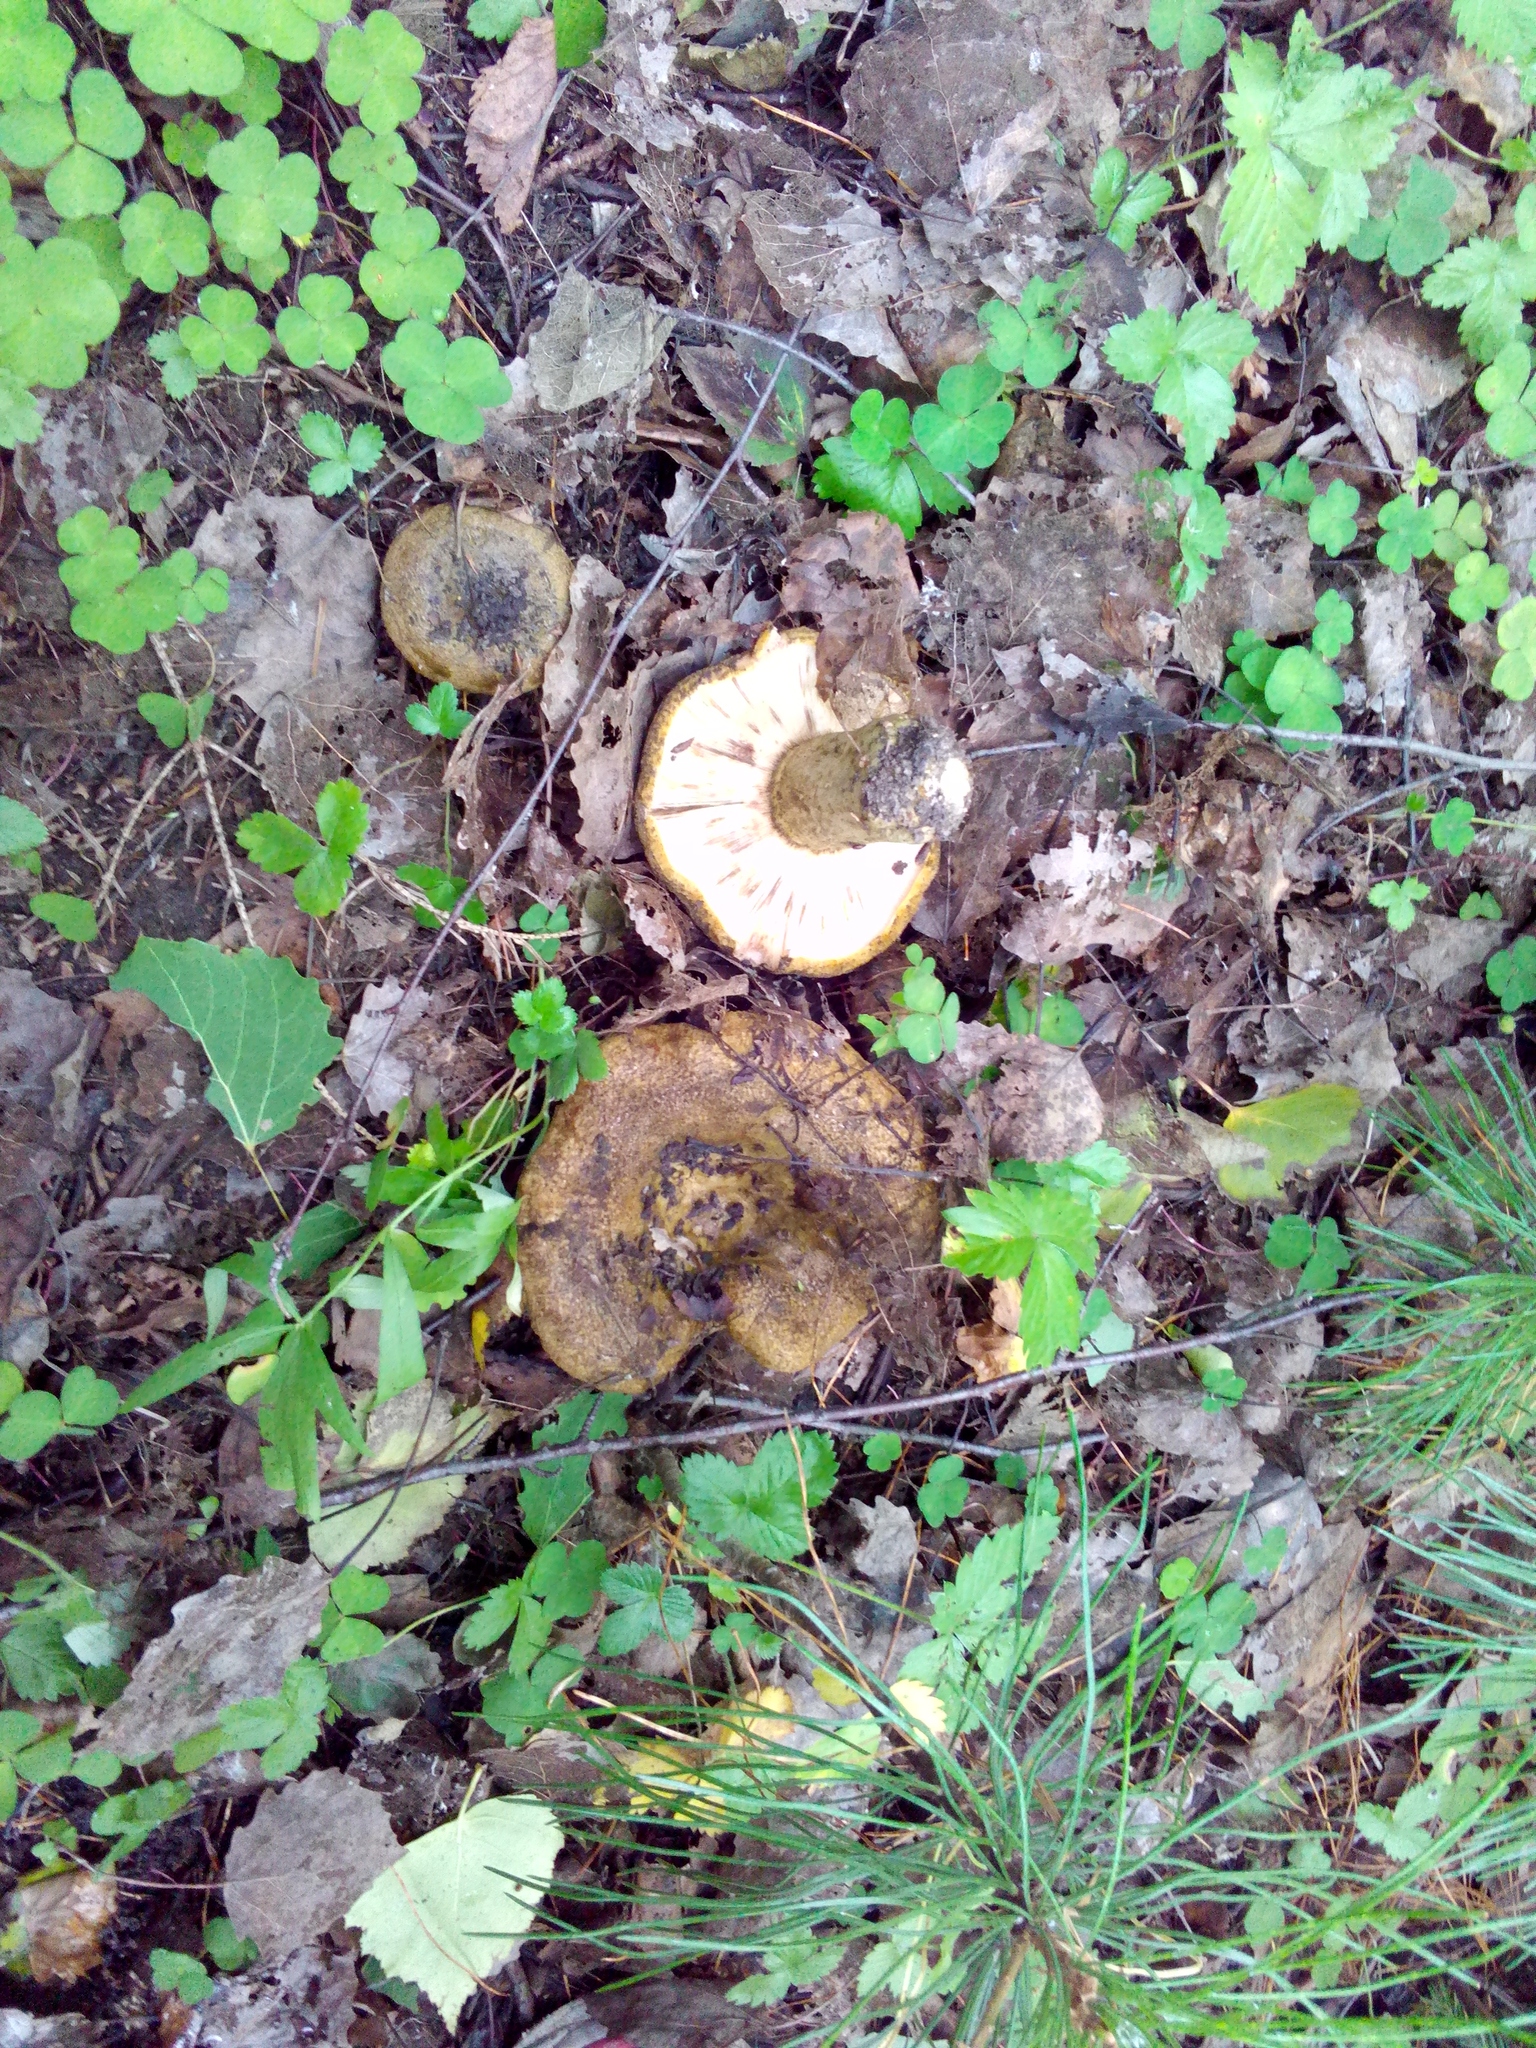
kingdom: Fungi
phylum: Basidiomycota
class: Agaricomycetes
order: Russulales
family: Russulaceae
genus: Lactarius
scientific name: Lactarius turpis
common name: Ugly milk-cap
